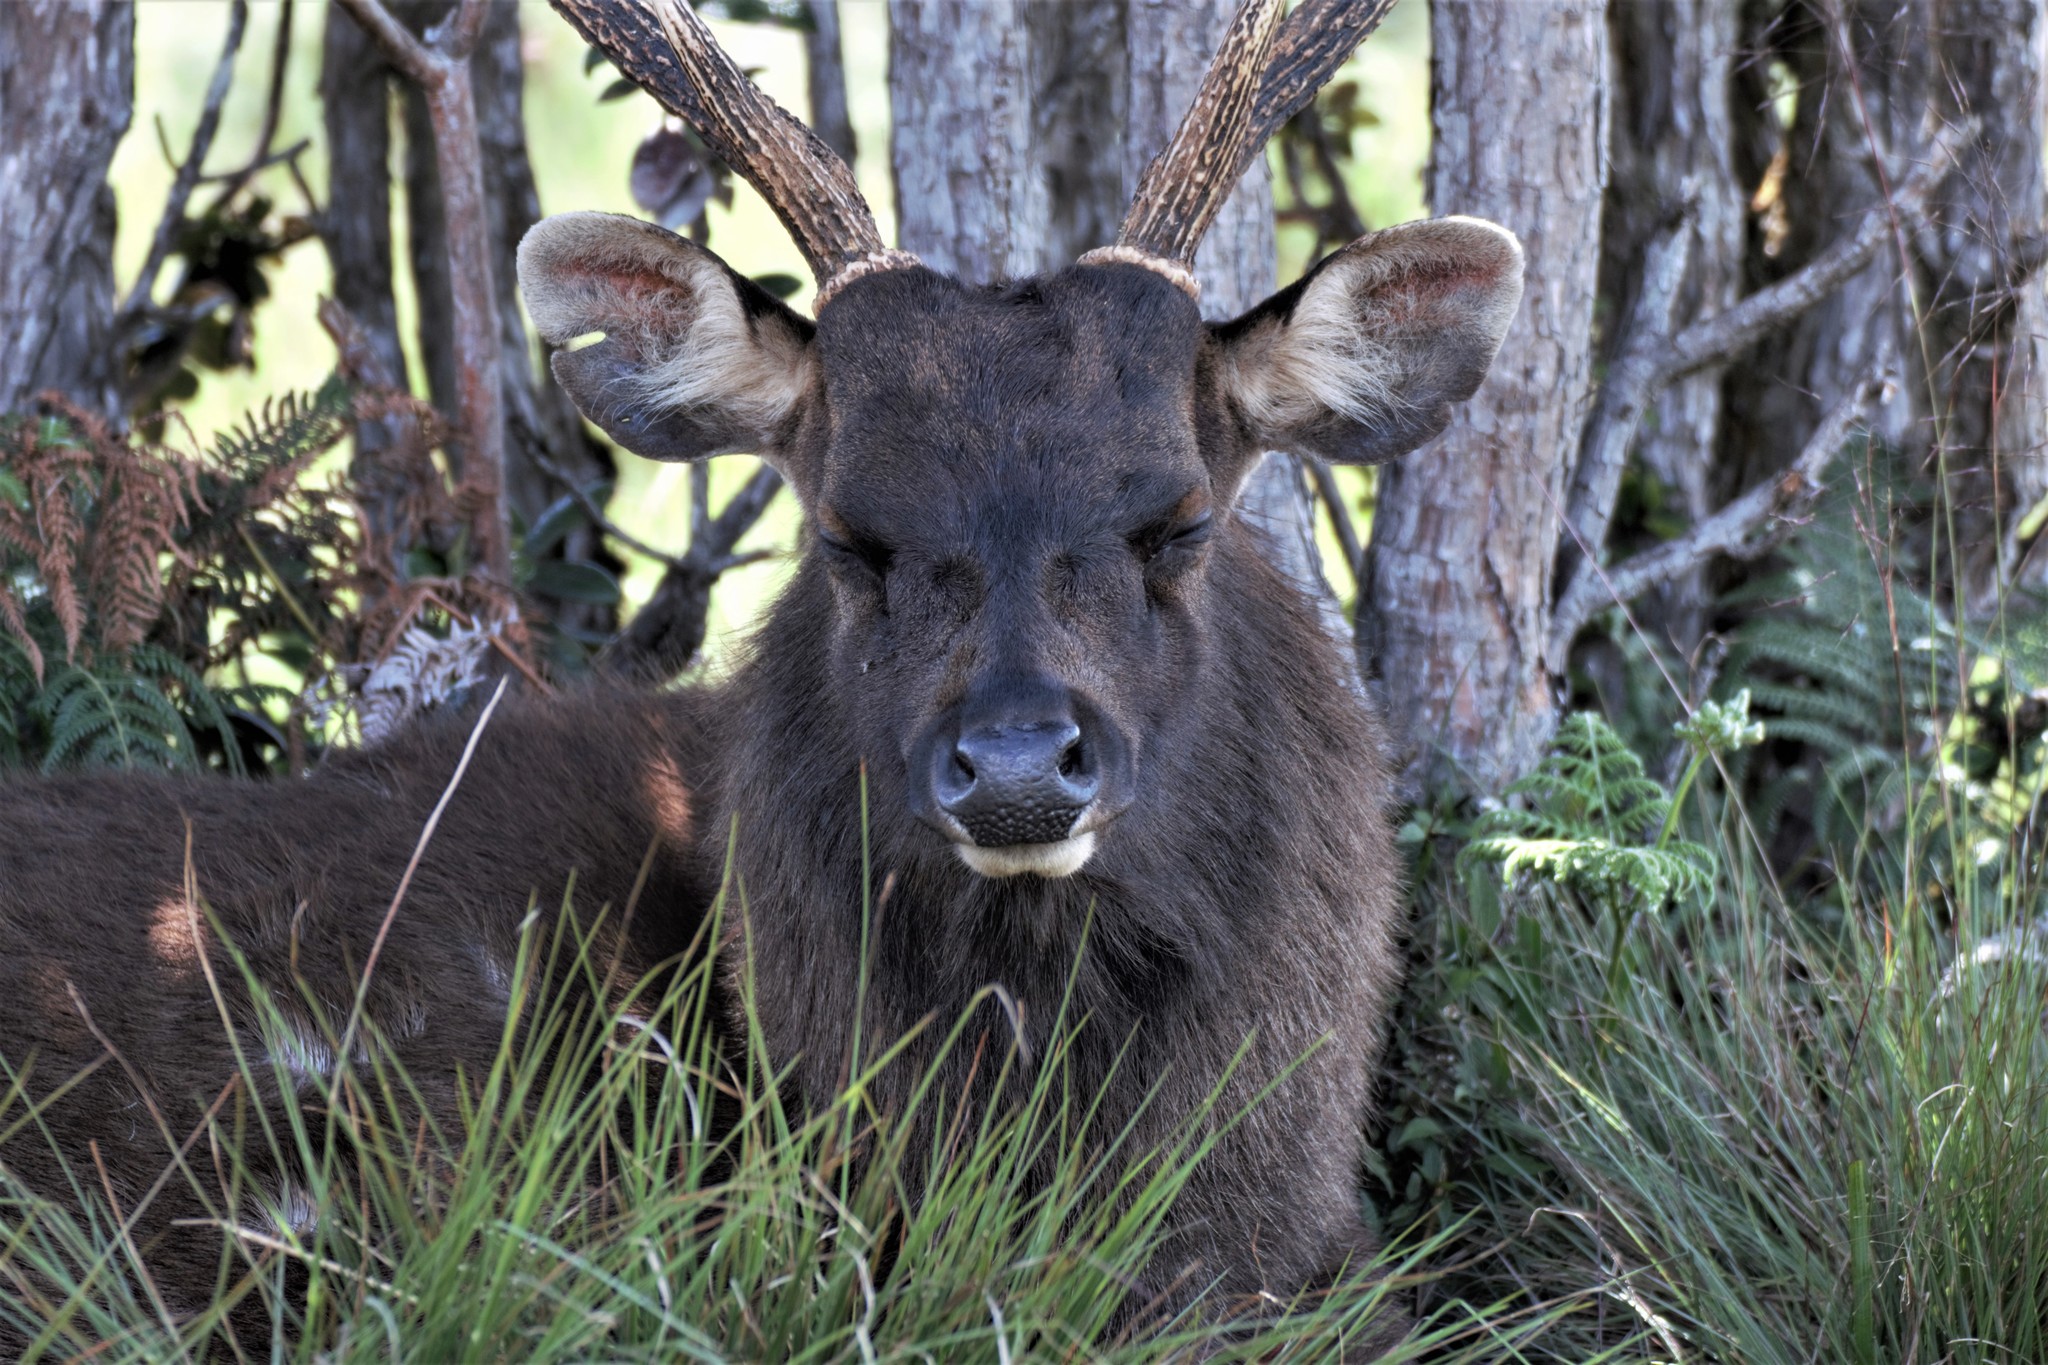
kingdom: Animalia
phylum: Chordata
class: Mammalia
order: Artiodactyla
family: Cervidae
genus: Rusa
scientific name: Rusa unicolor
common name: Sambar
